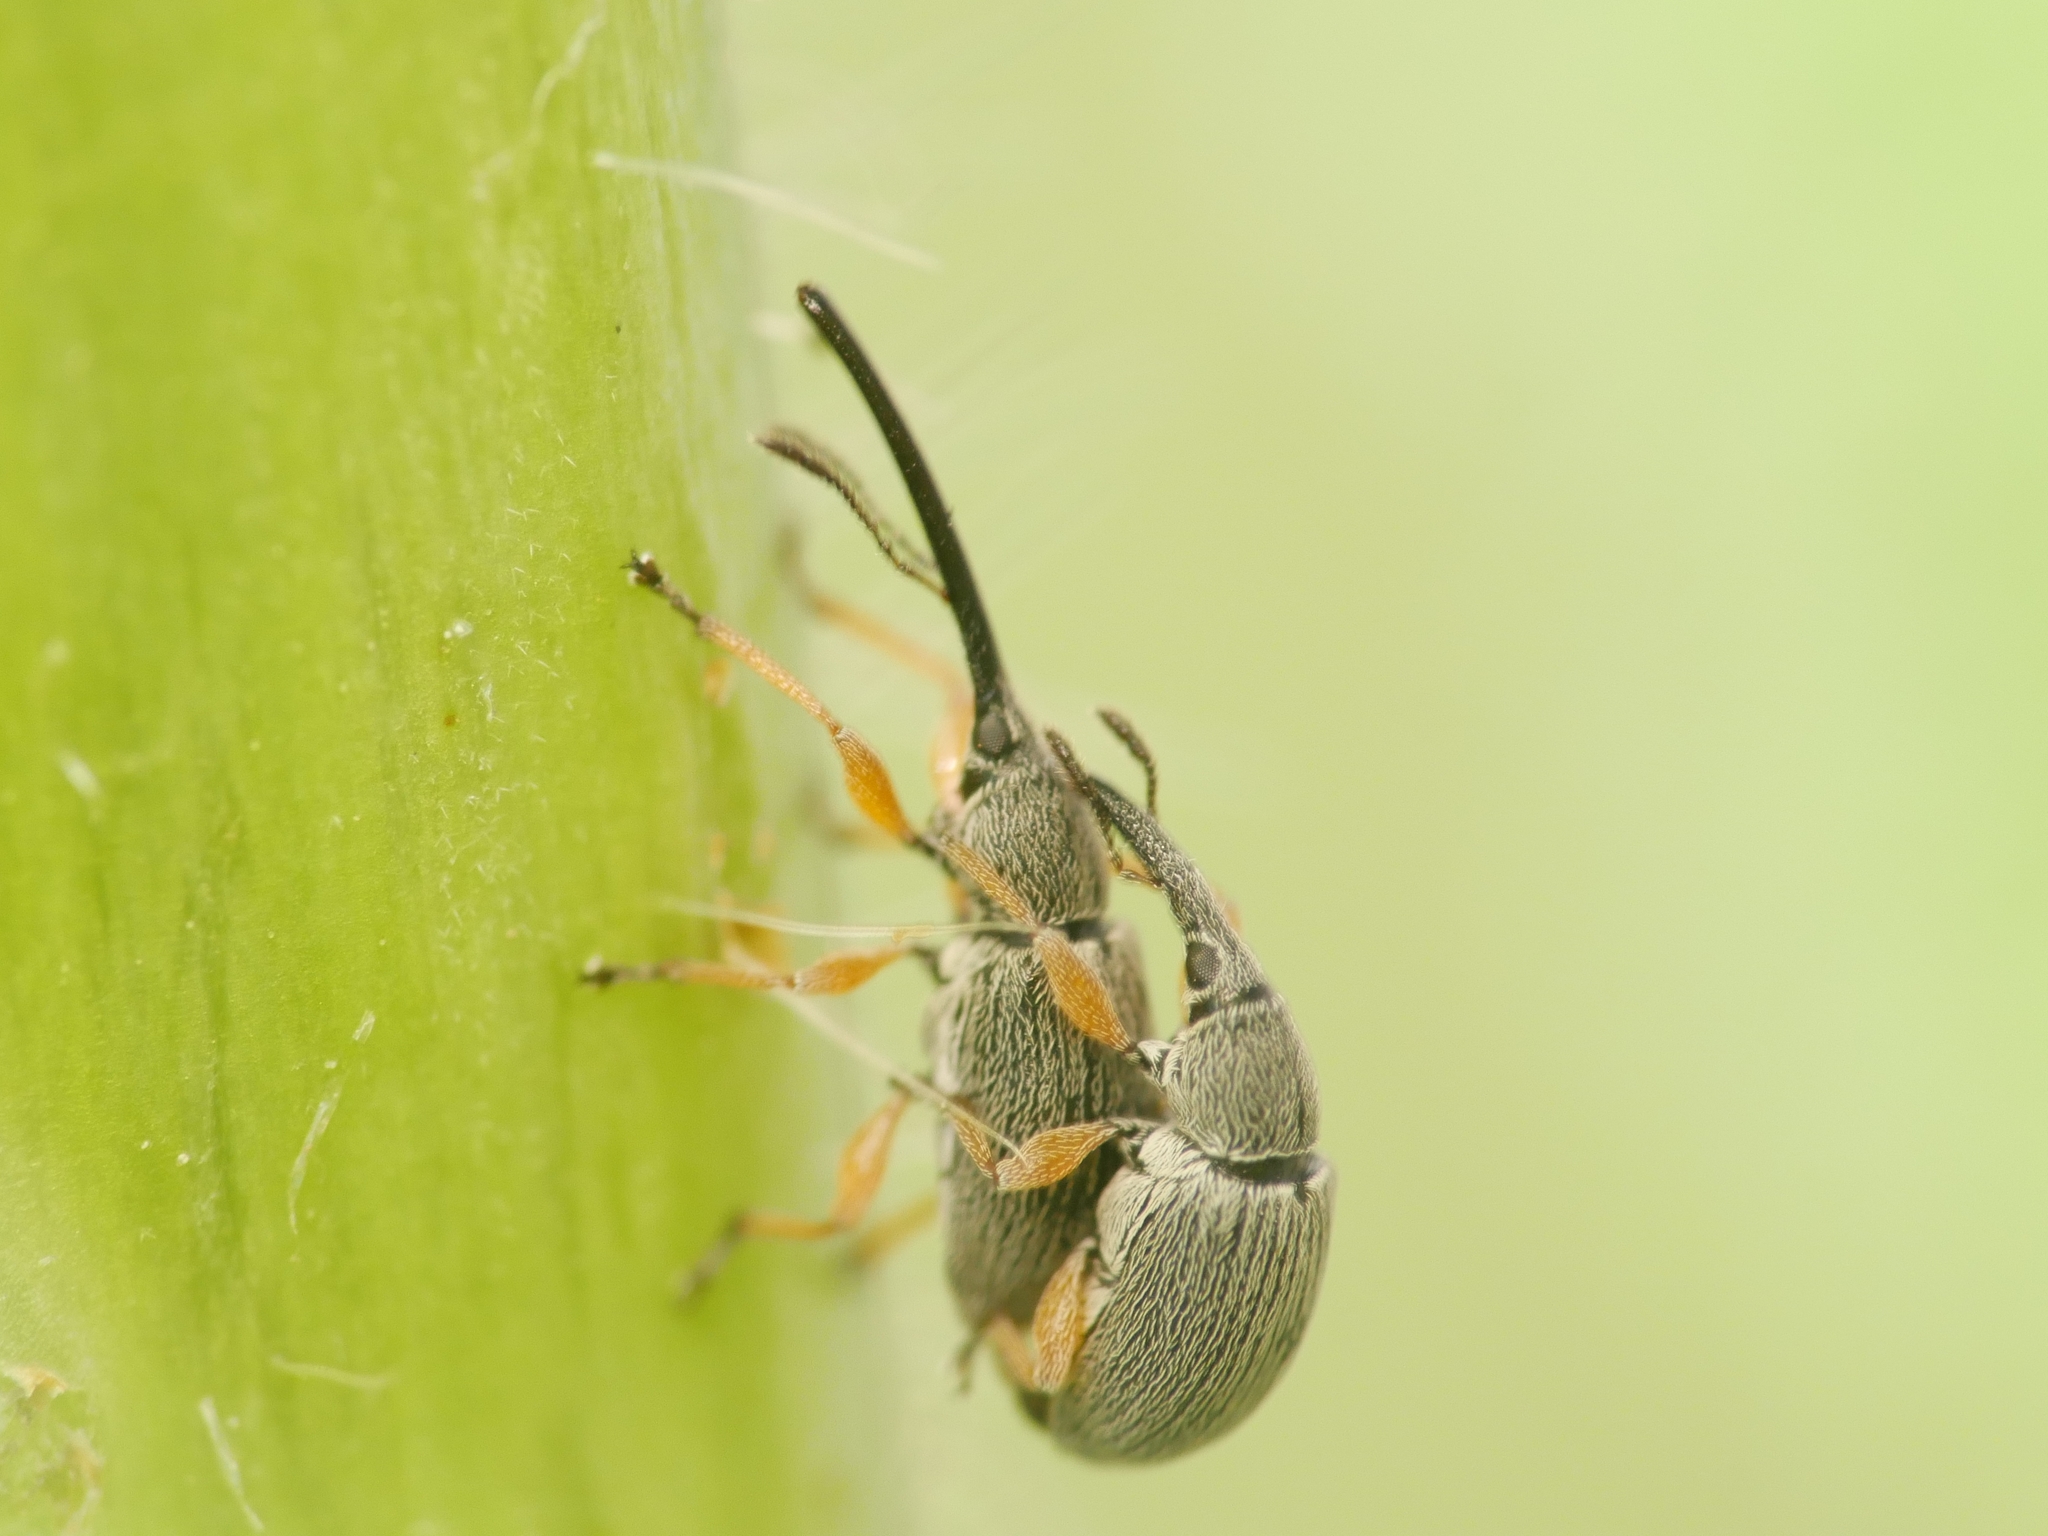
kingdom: Animalia
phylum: Arthropoda
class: Insecta
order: Coleoptera
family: Brentidae
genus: Rhopalapion
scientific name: Rhopalapion longirostre
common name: Hollyhock weevil
